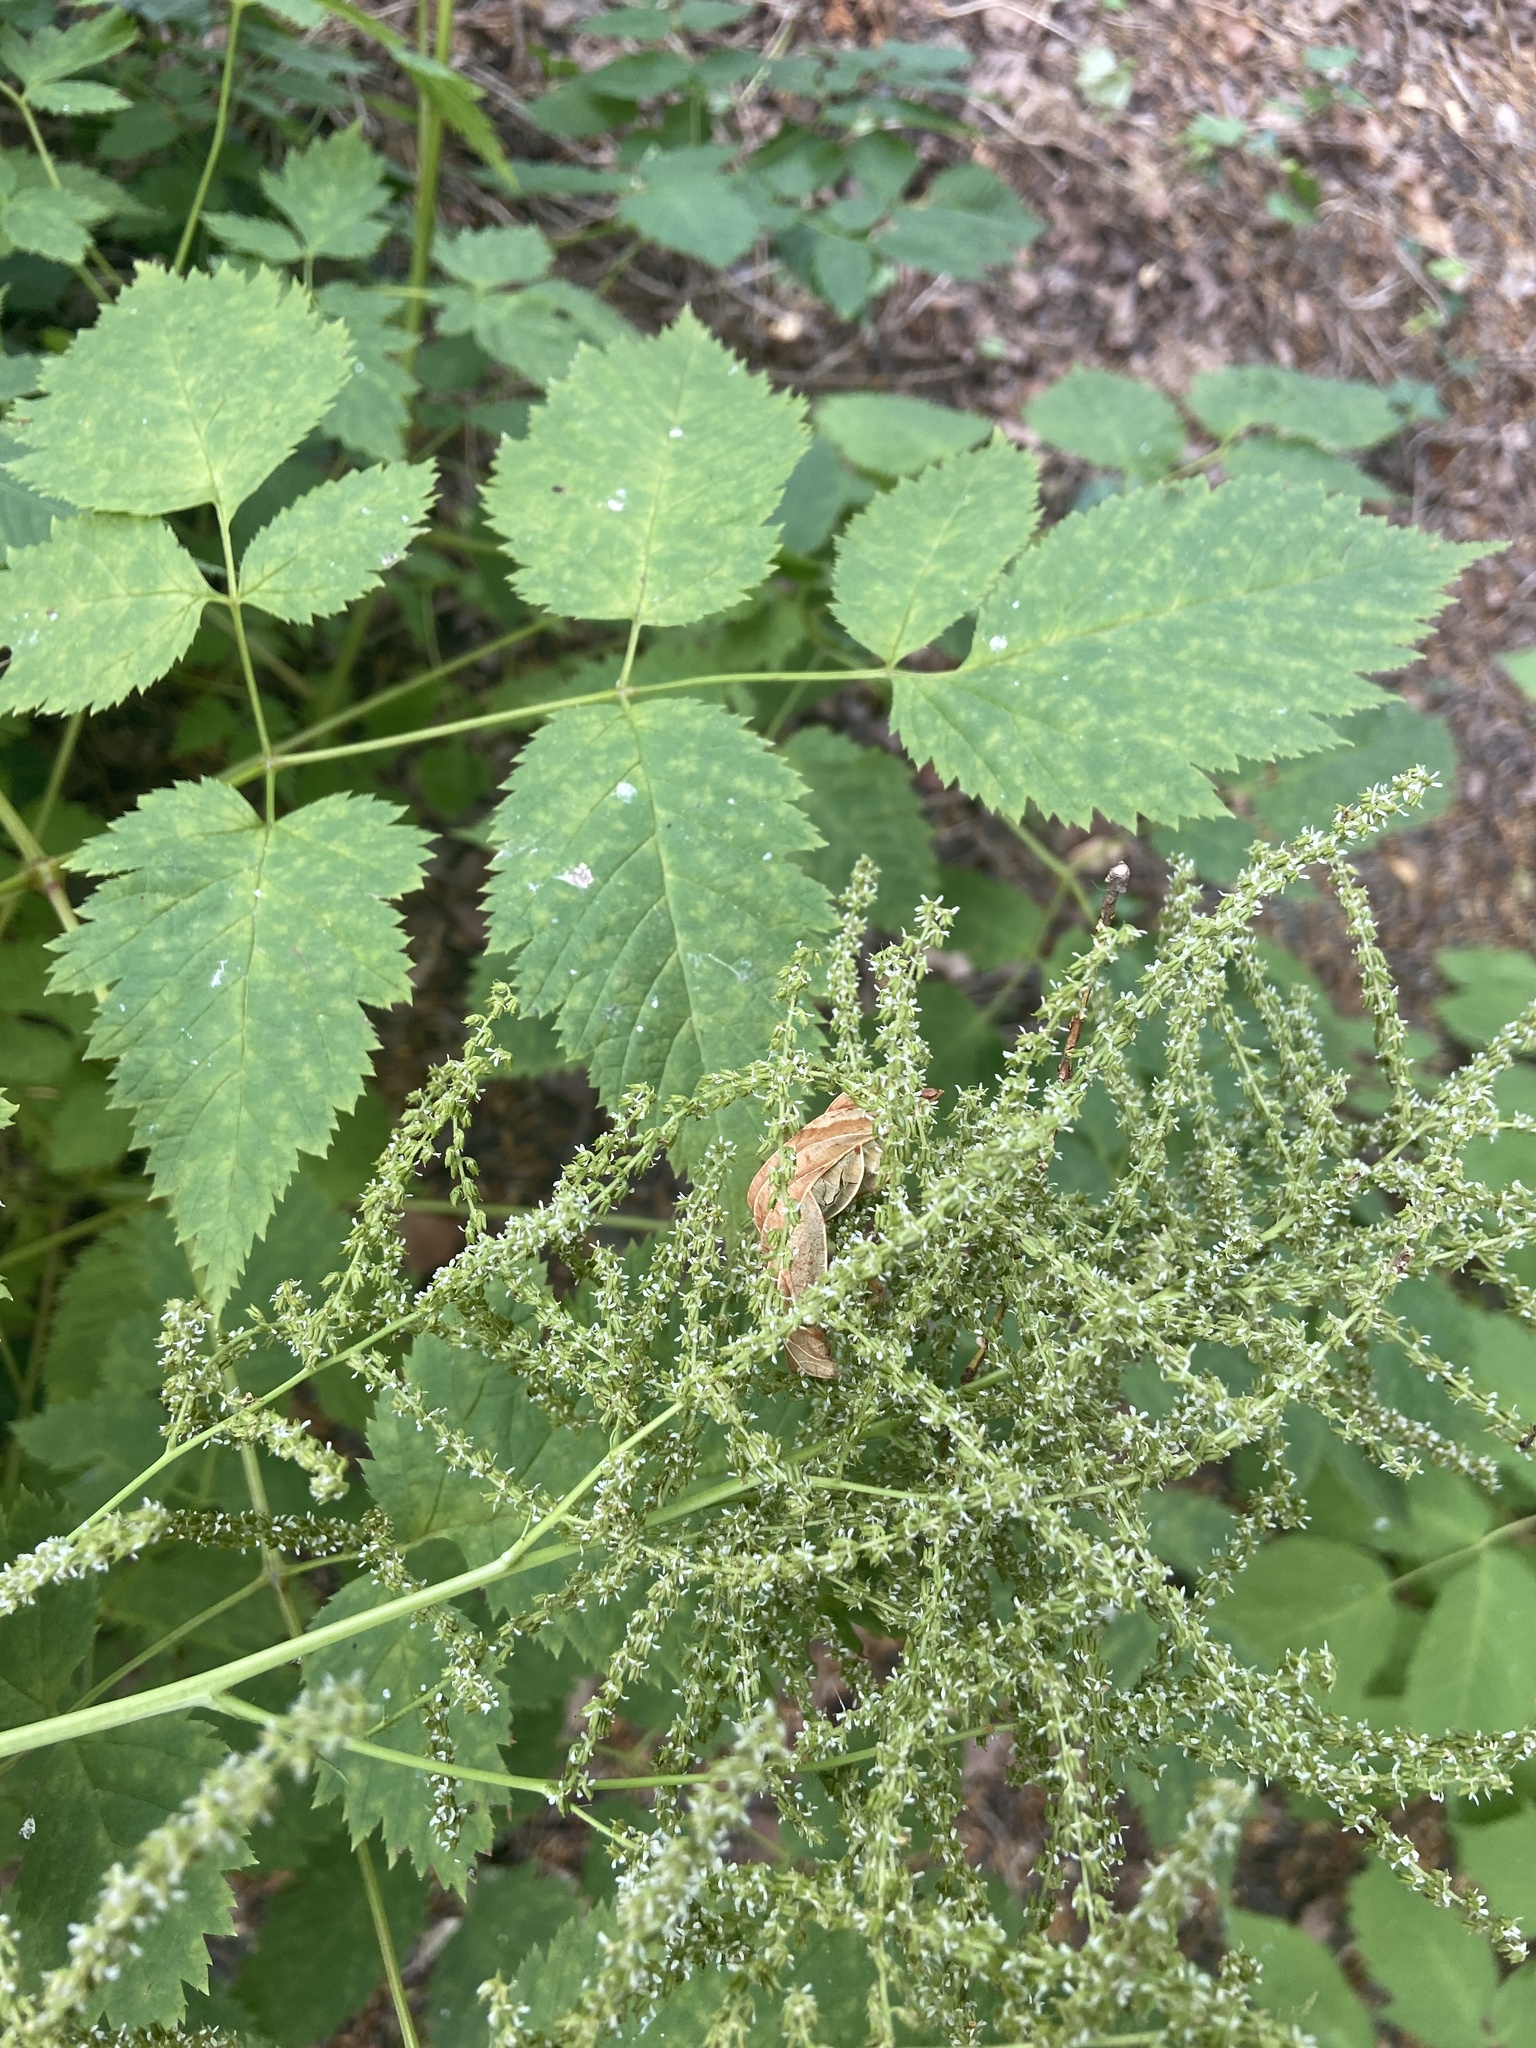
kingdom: Plantae
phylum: Tracheophyta
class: Magnoliopsida
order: Rosales
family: Rosaceae
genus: Aruncus
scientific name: Aruncus dioicus
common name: Buck's-beard
